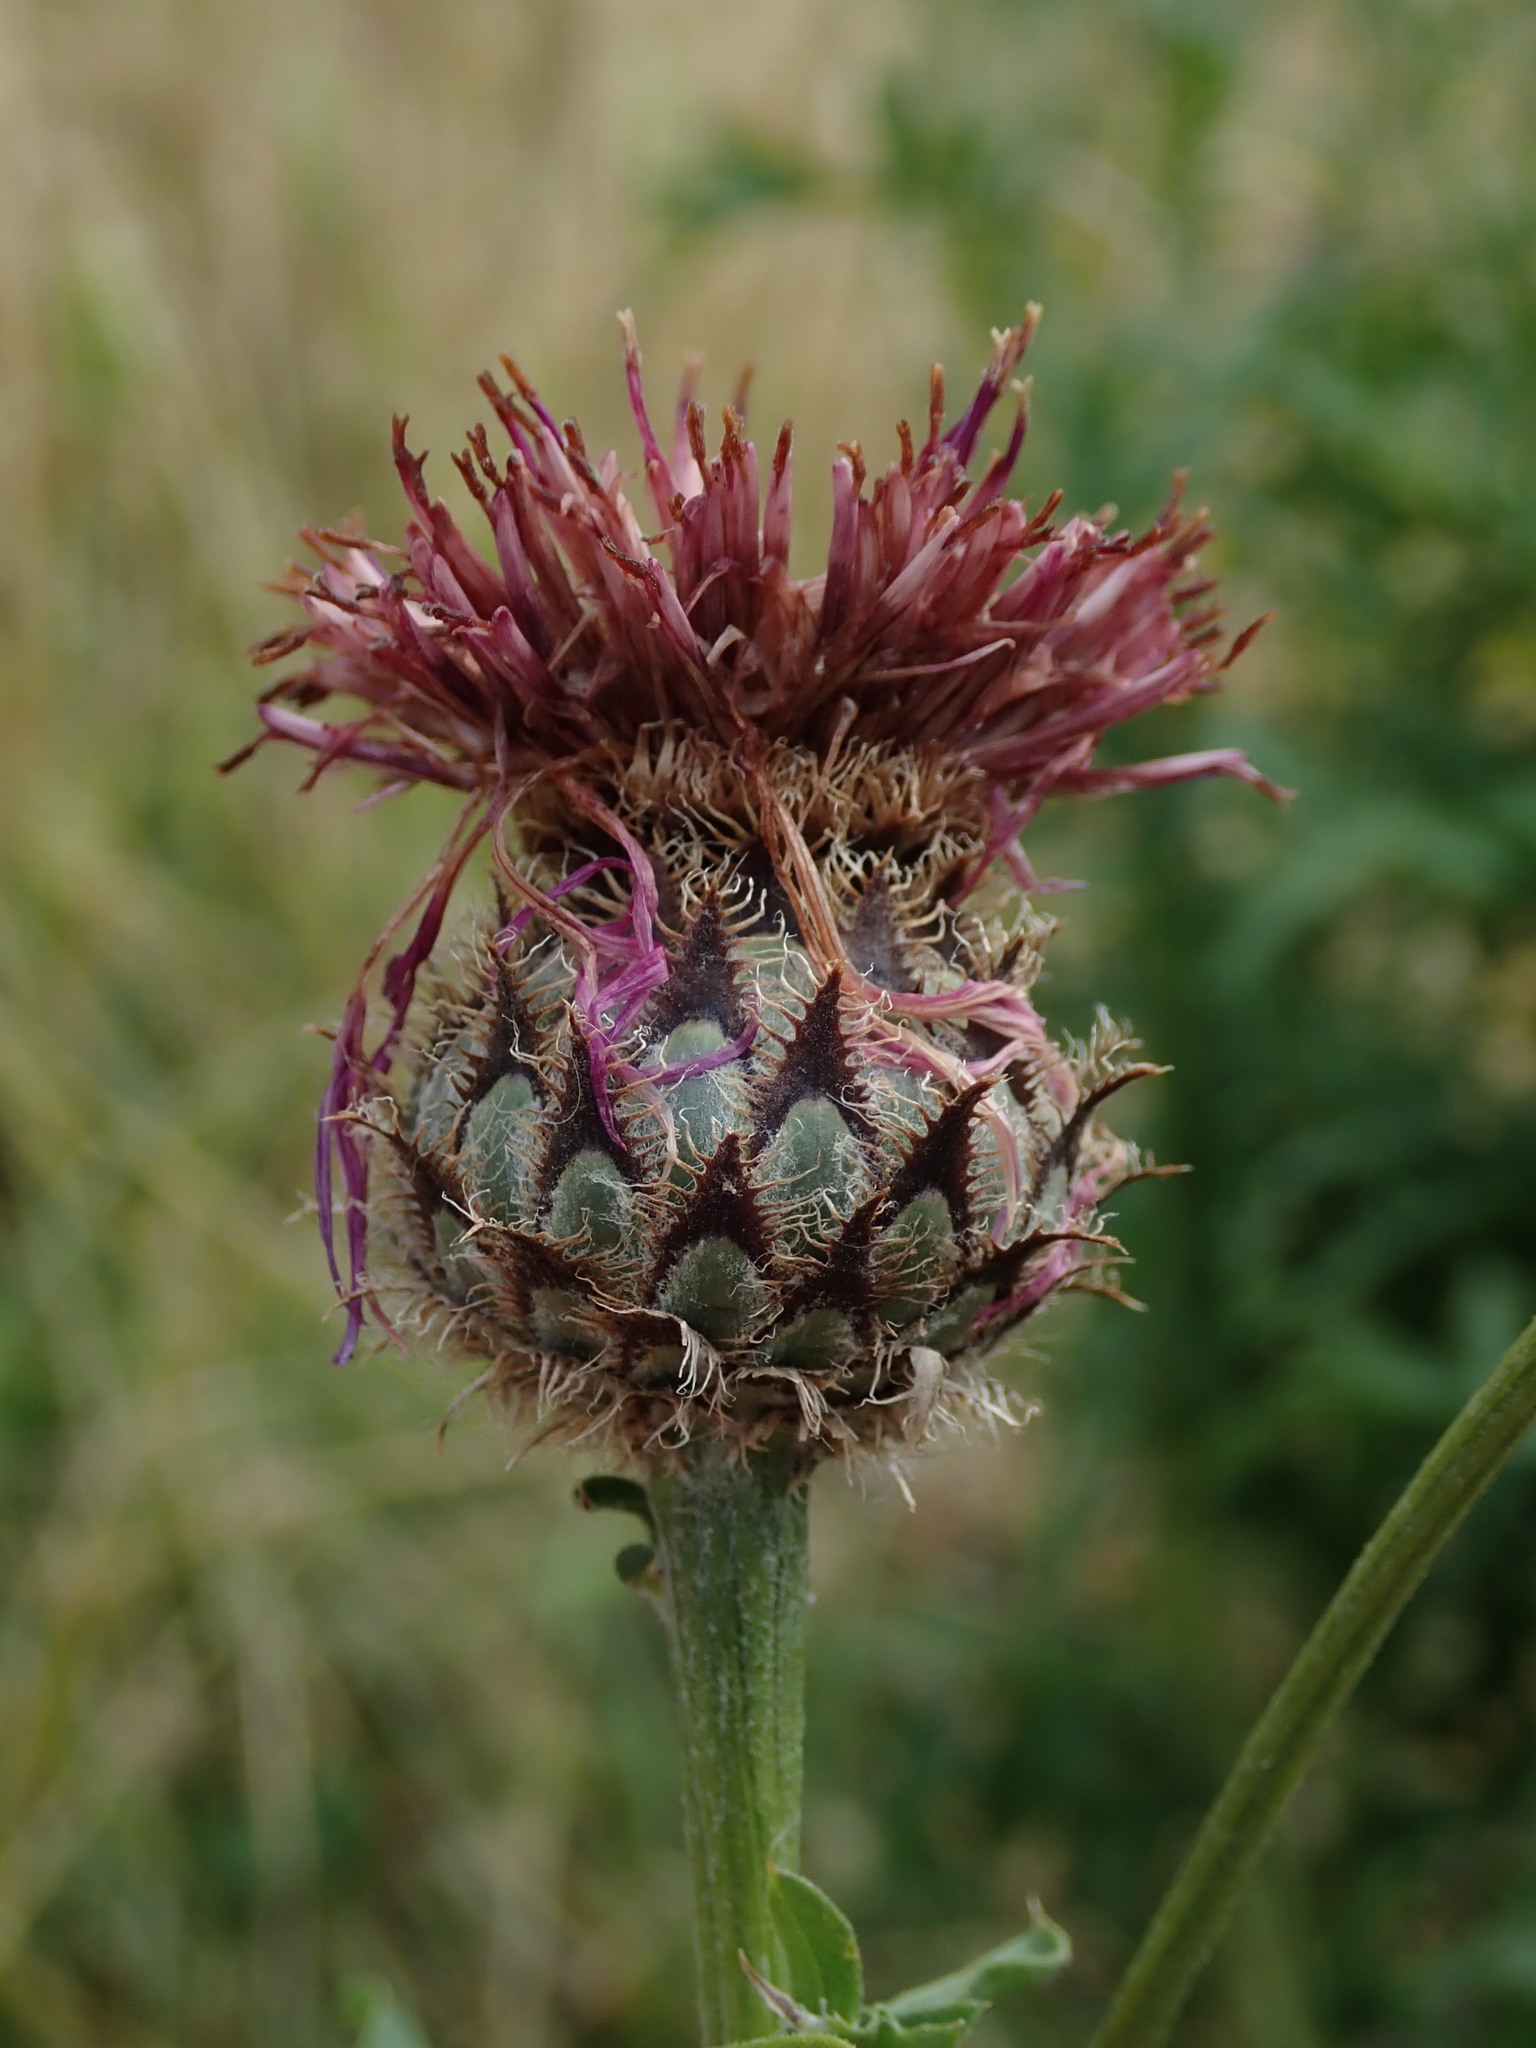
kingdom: Plantae
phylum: Tracheophyta
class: Magnoliopsida
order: Asterales
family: Asteraceae
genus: Centaurea
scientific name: Centaurea scabiosa
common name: Greater knapweed
